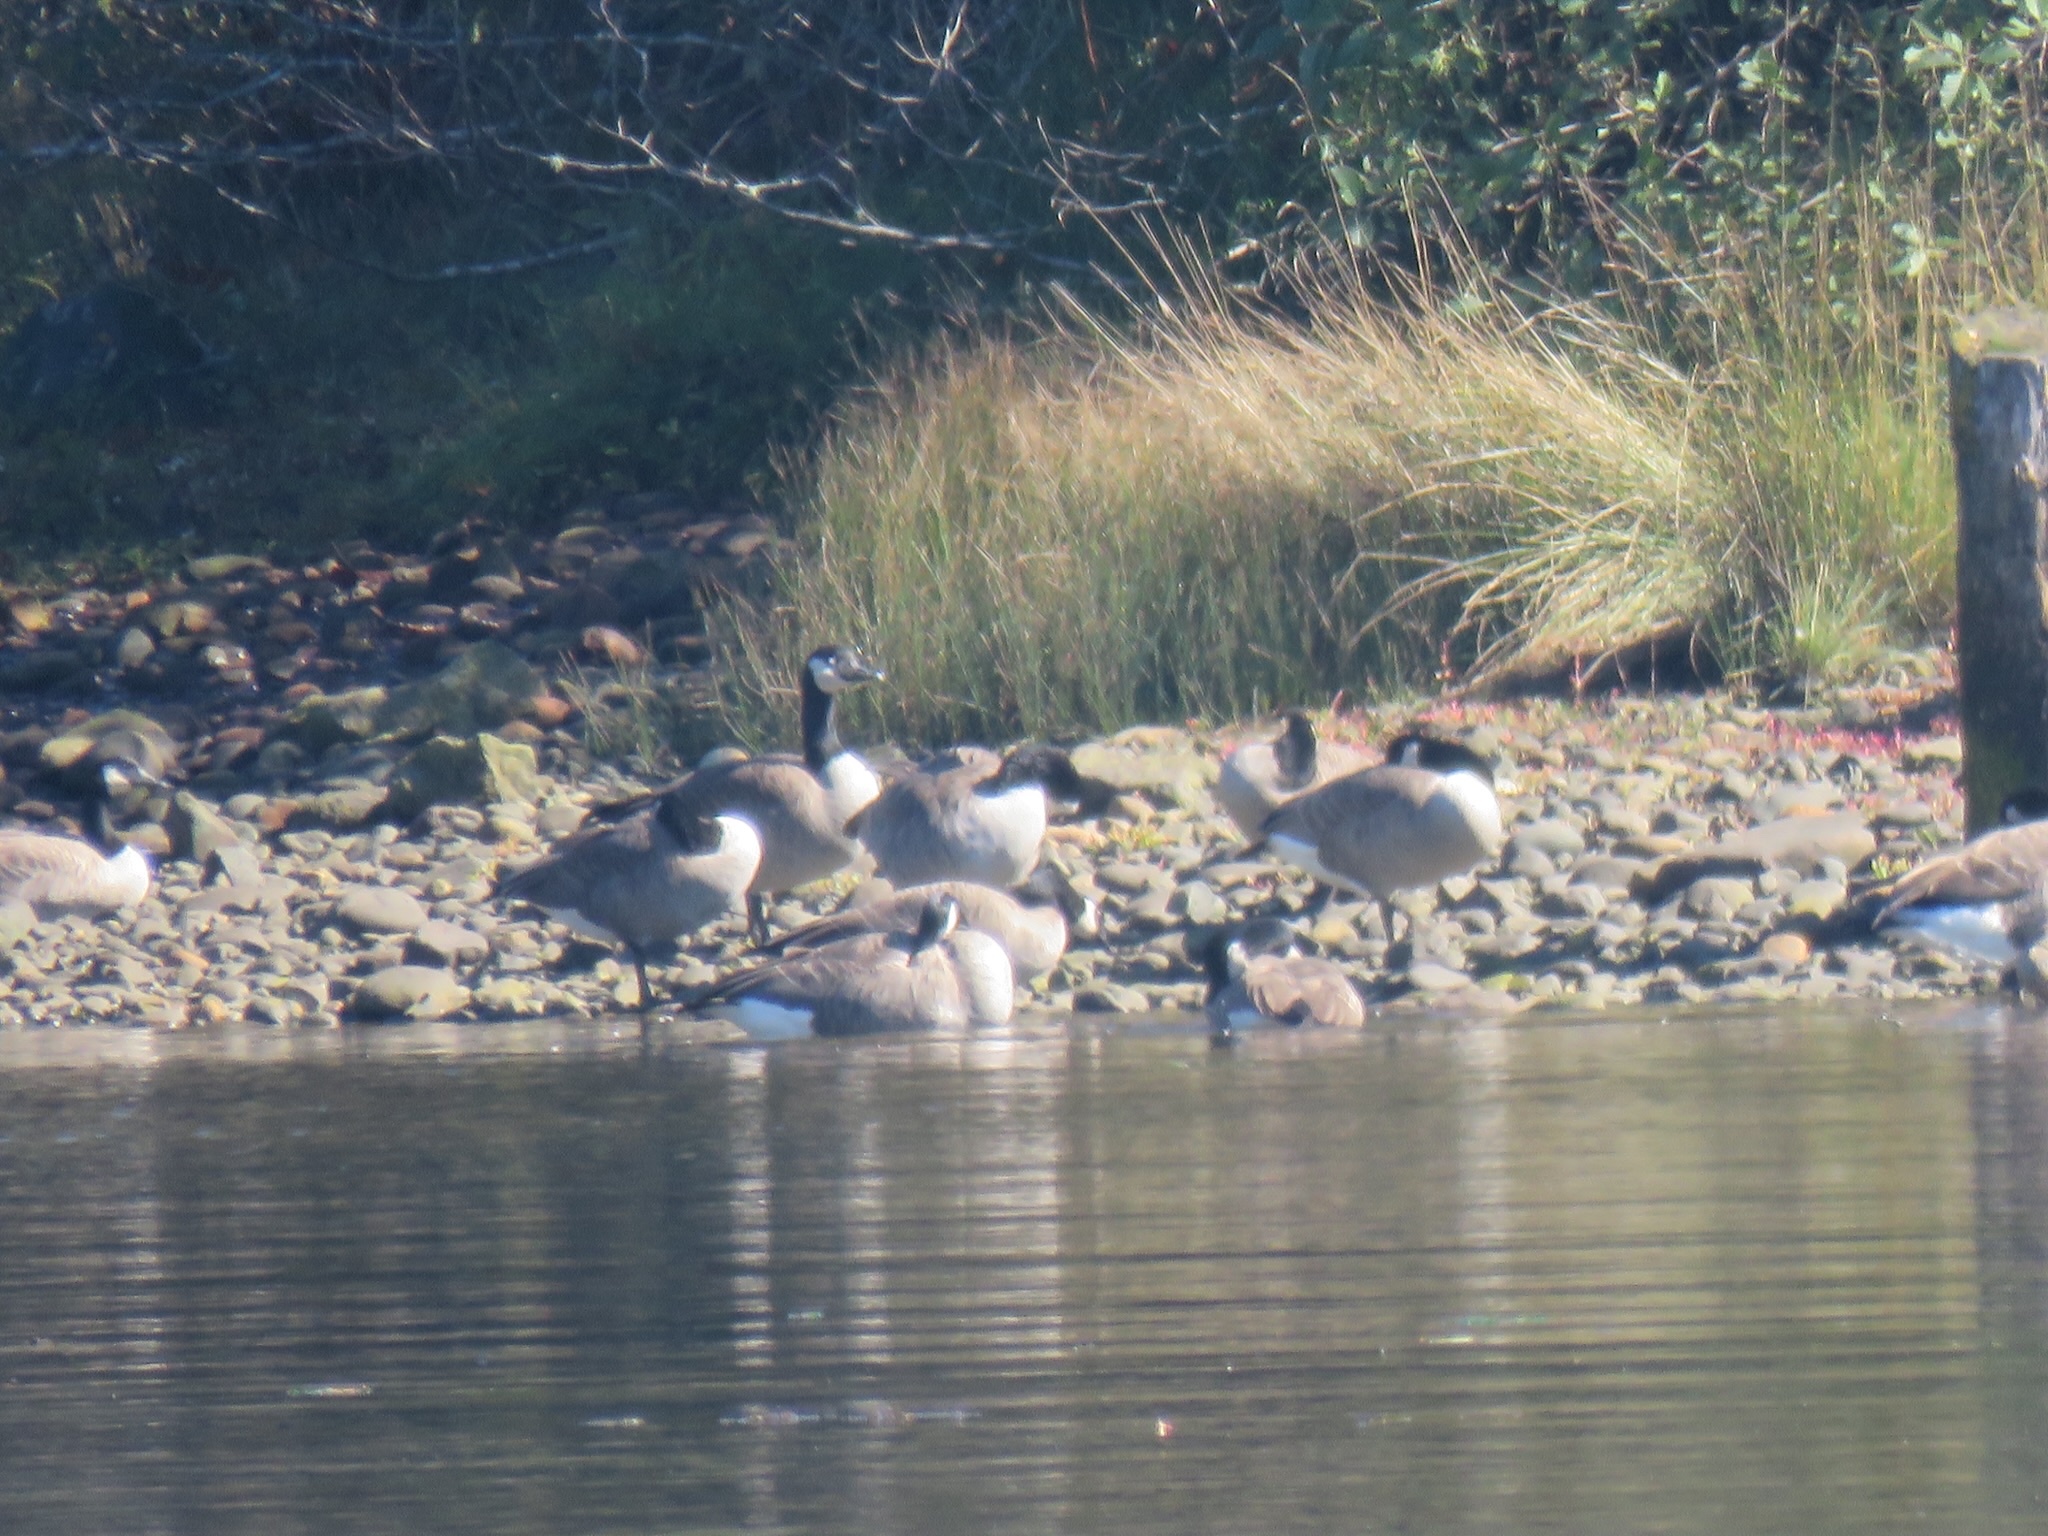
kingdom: Animalia
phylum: Chordata
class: Aves
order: Anseriformes
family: Anatidae
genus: Branta
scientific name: Branta canadensis
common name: Canada goose
